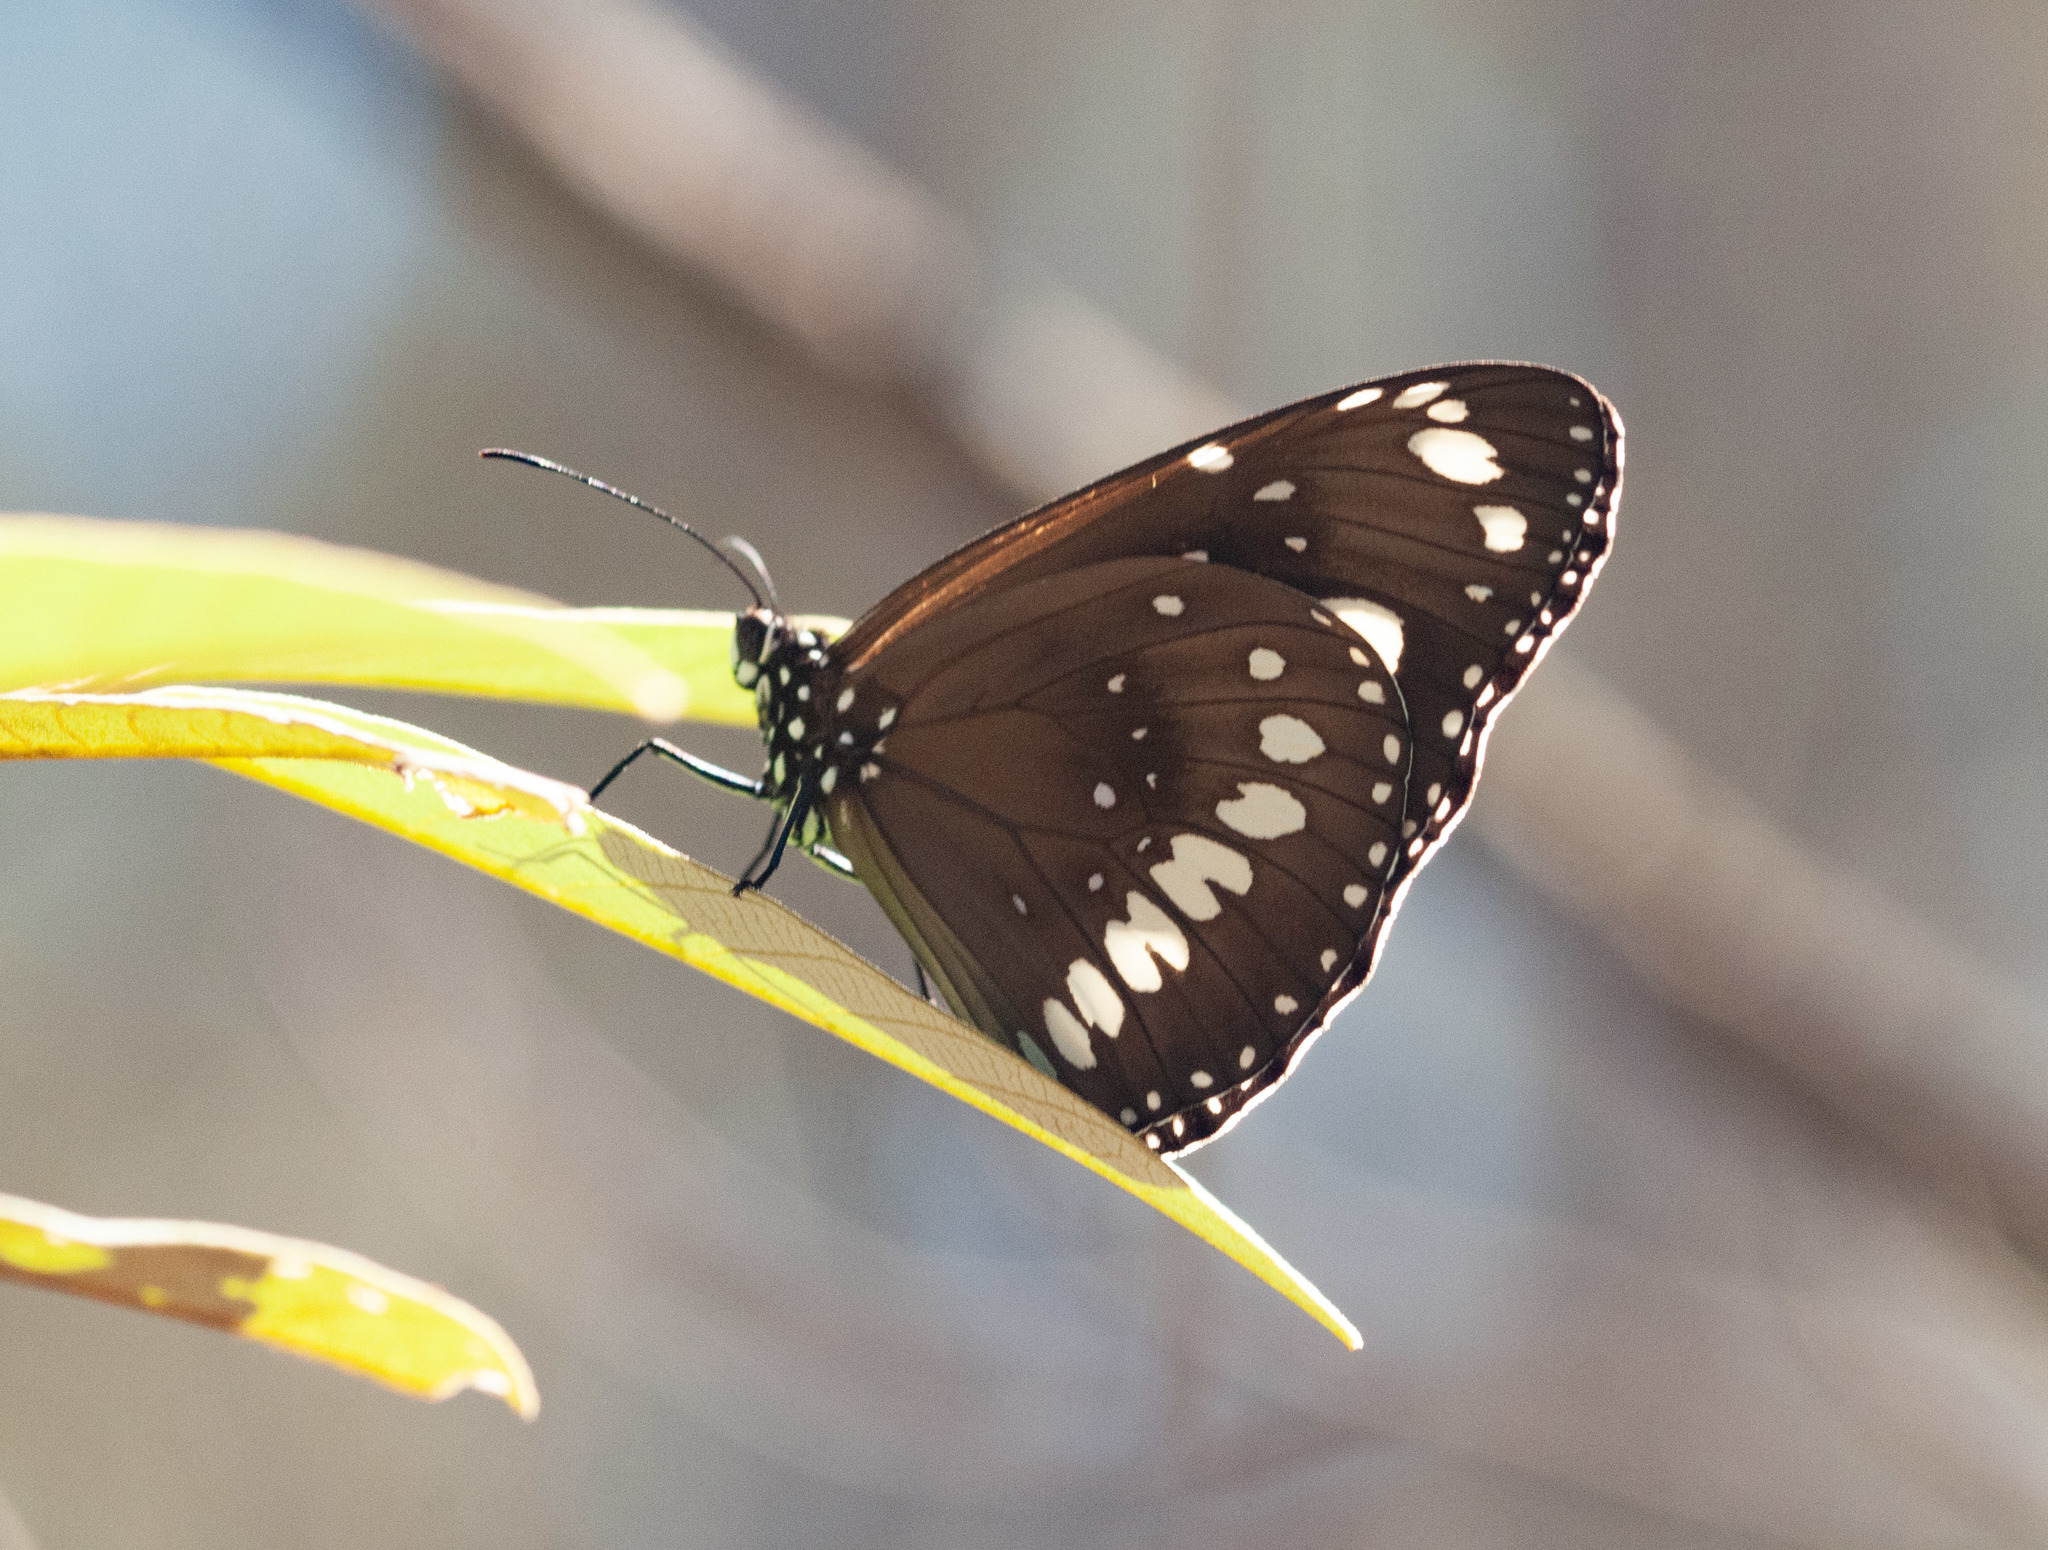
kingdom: Animalia
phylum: Arthropoda
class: Insecta
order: Lepidoptera
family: Nymphalidae
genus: Euploea
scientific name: Euploea core
